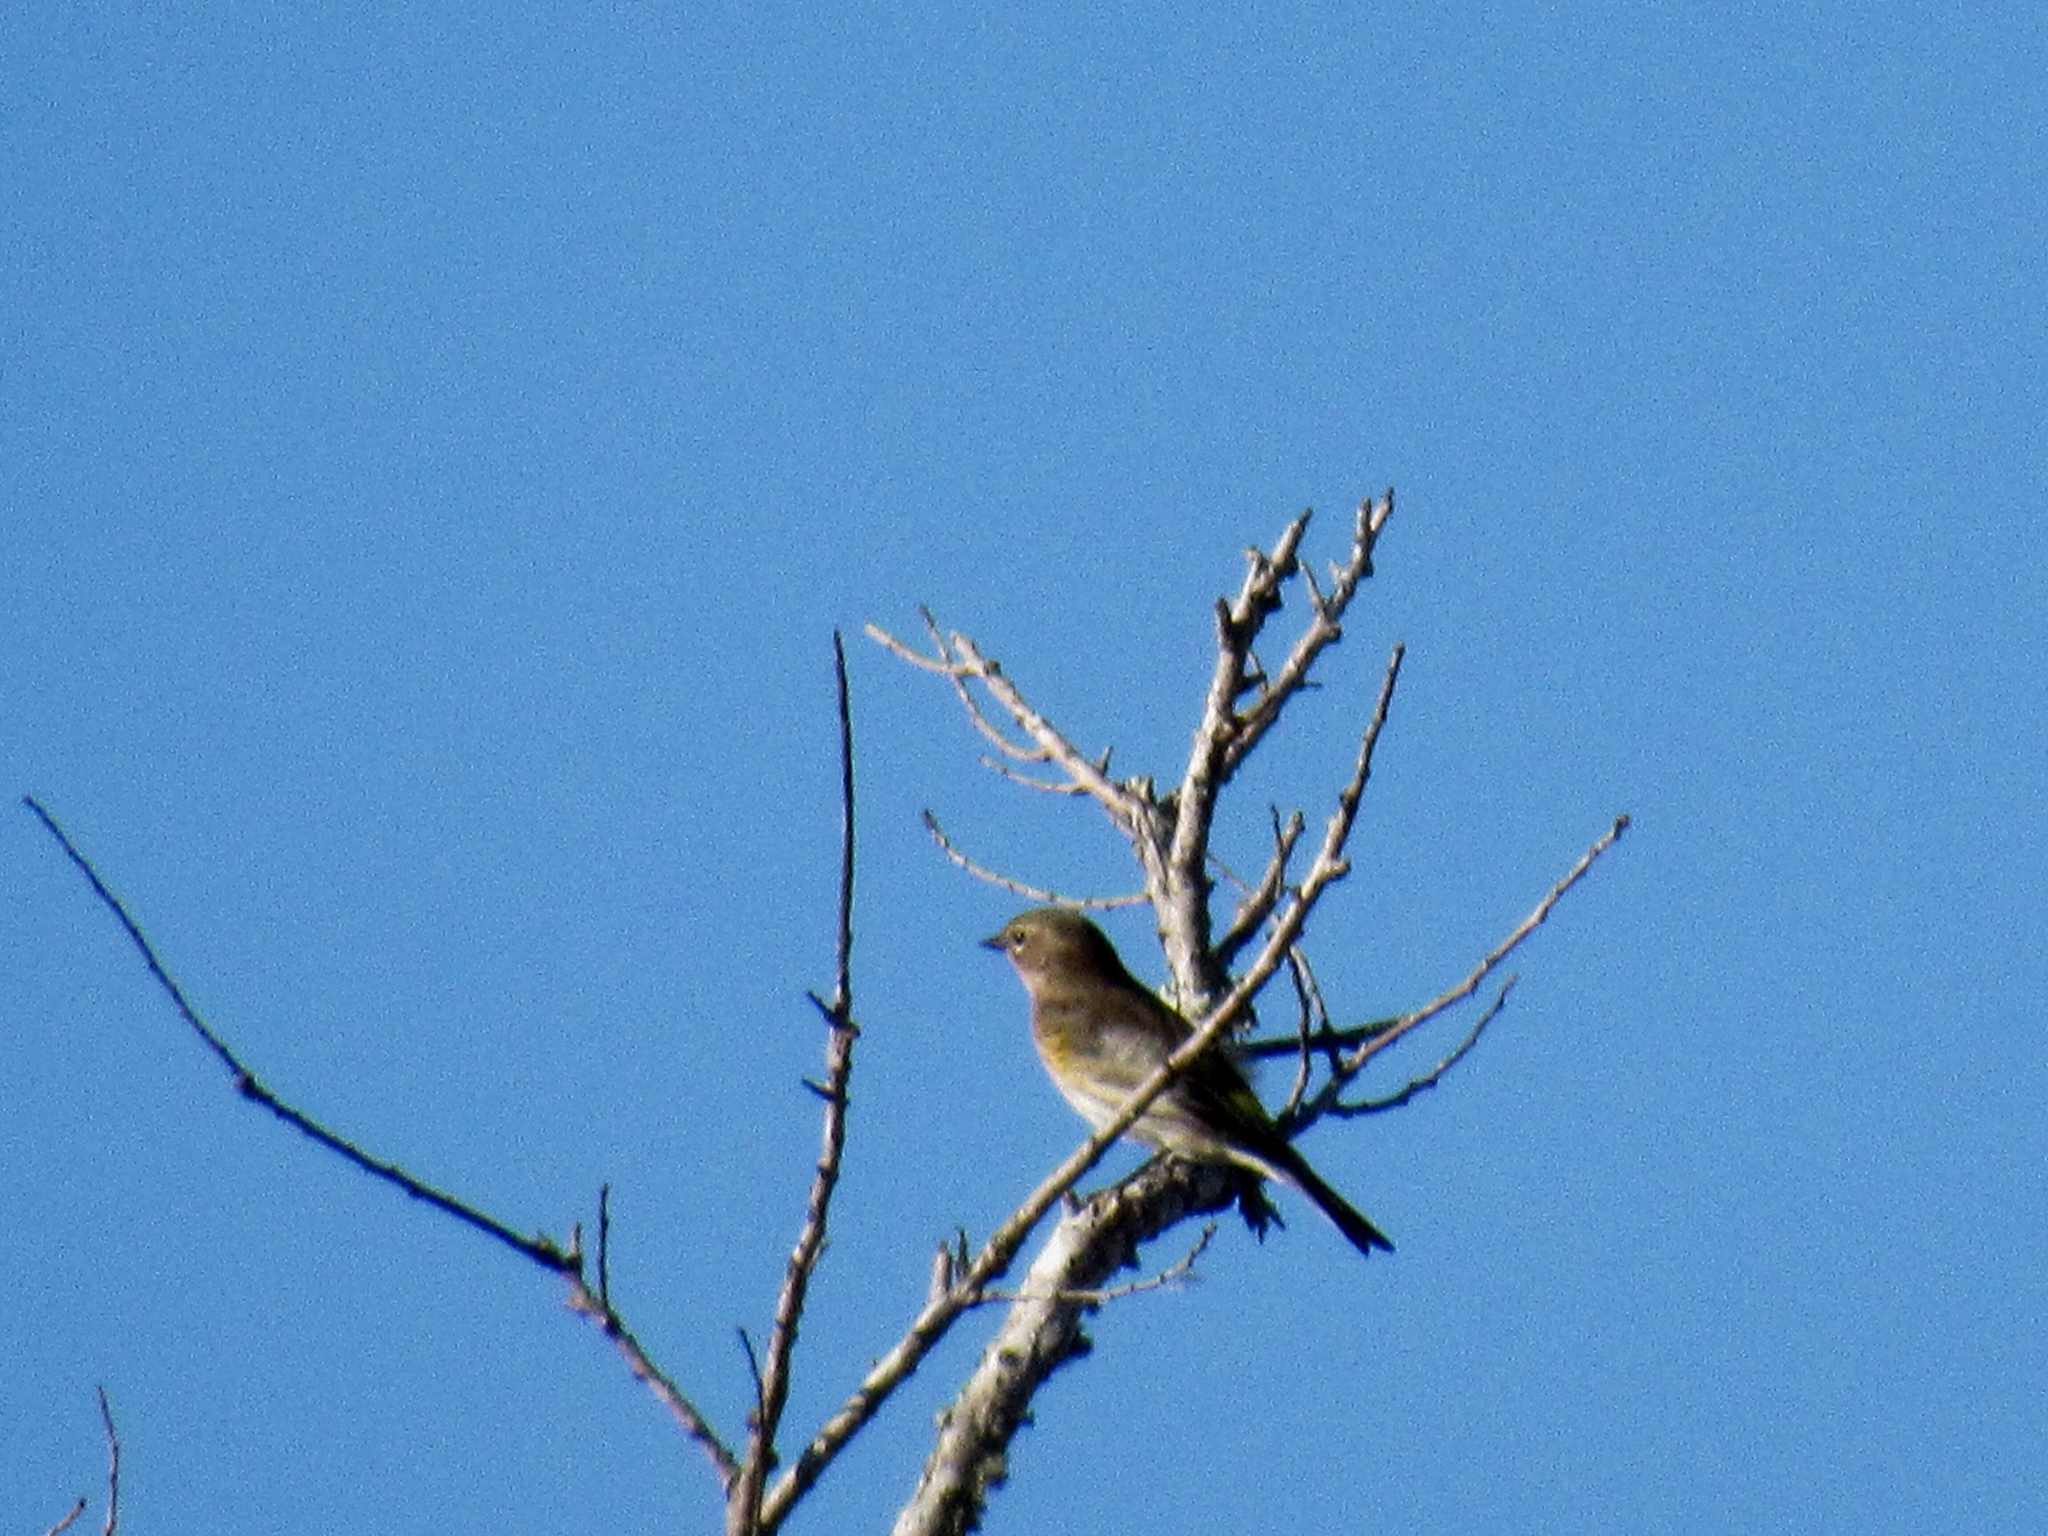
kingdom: Animalia
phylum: Chordata
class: Aves
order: Passeriformes
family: Parulidae
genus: Setophaga
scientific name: Setophaga coronata
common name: Myrtle warbler
